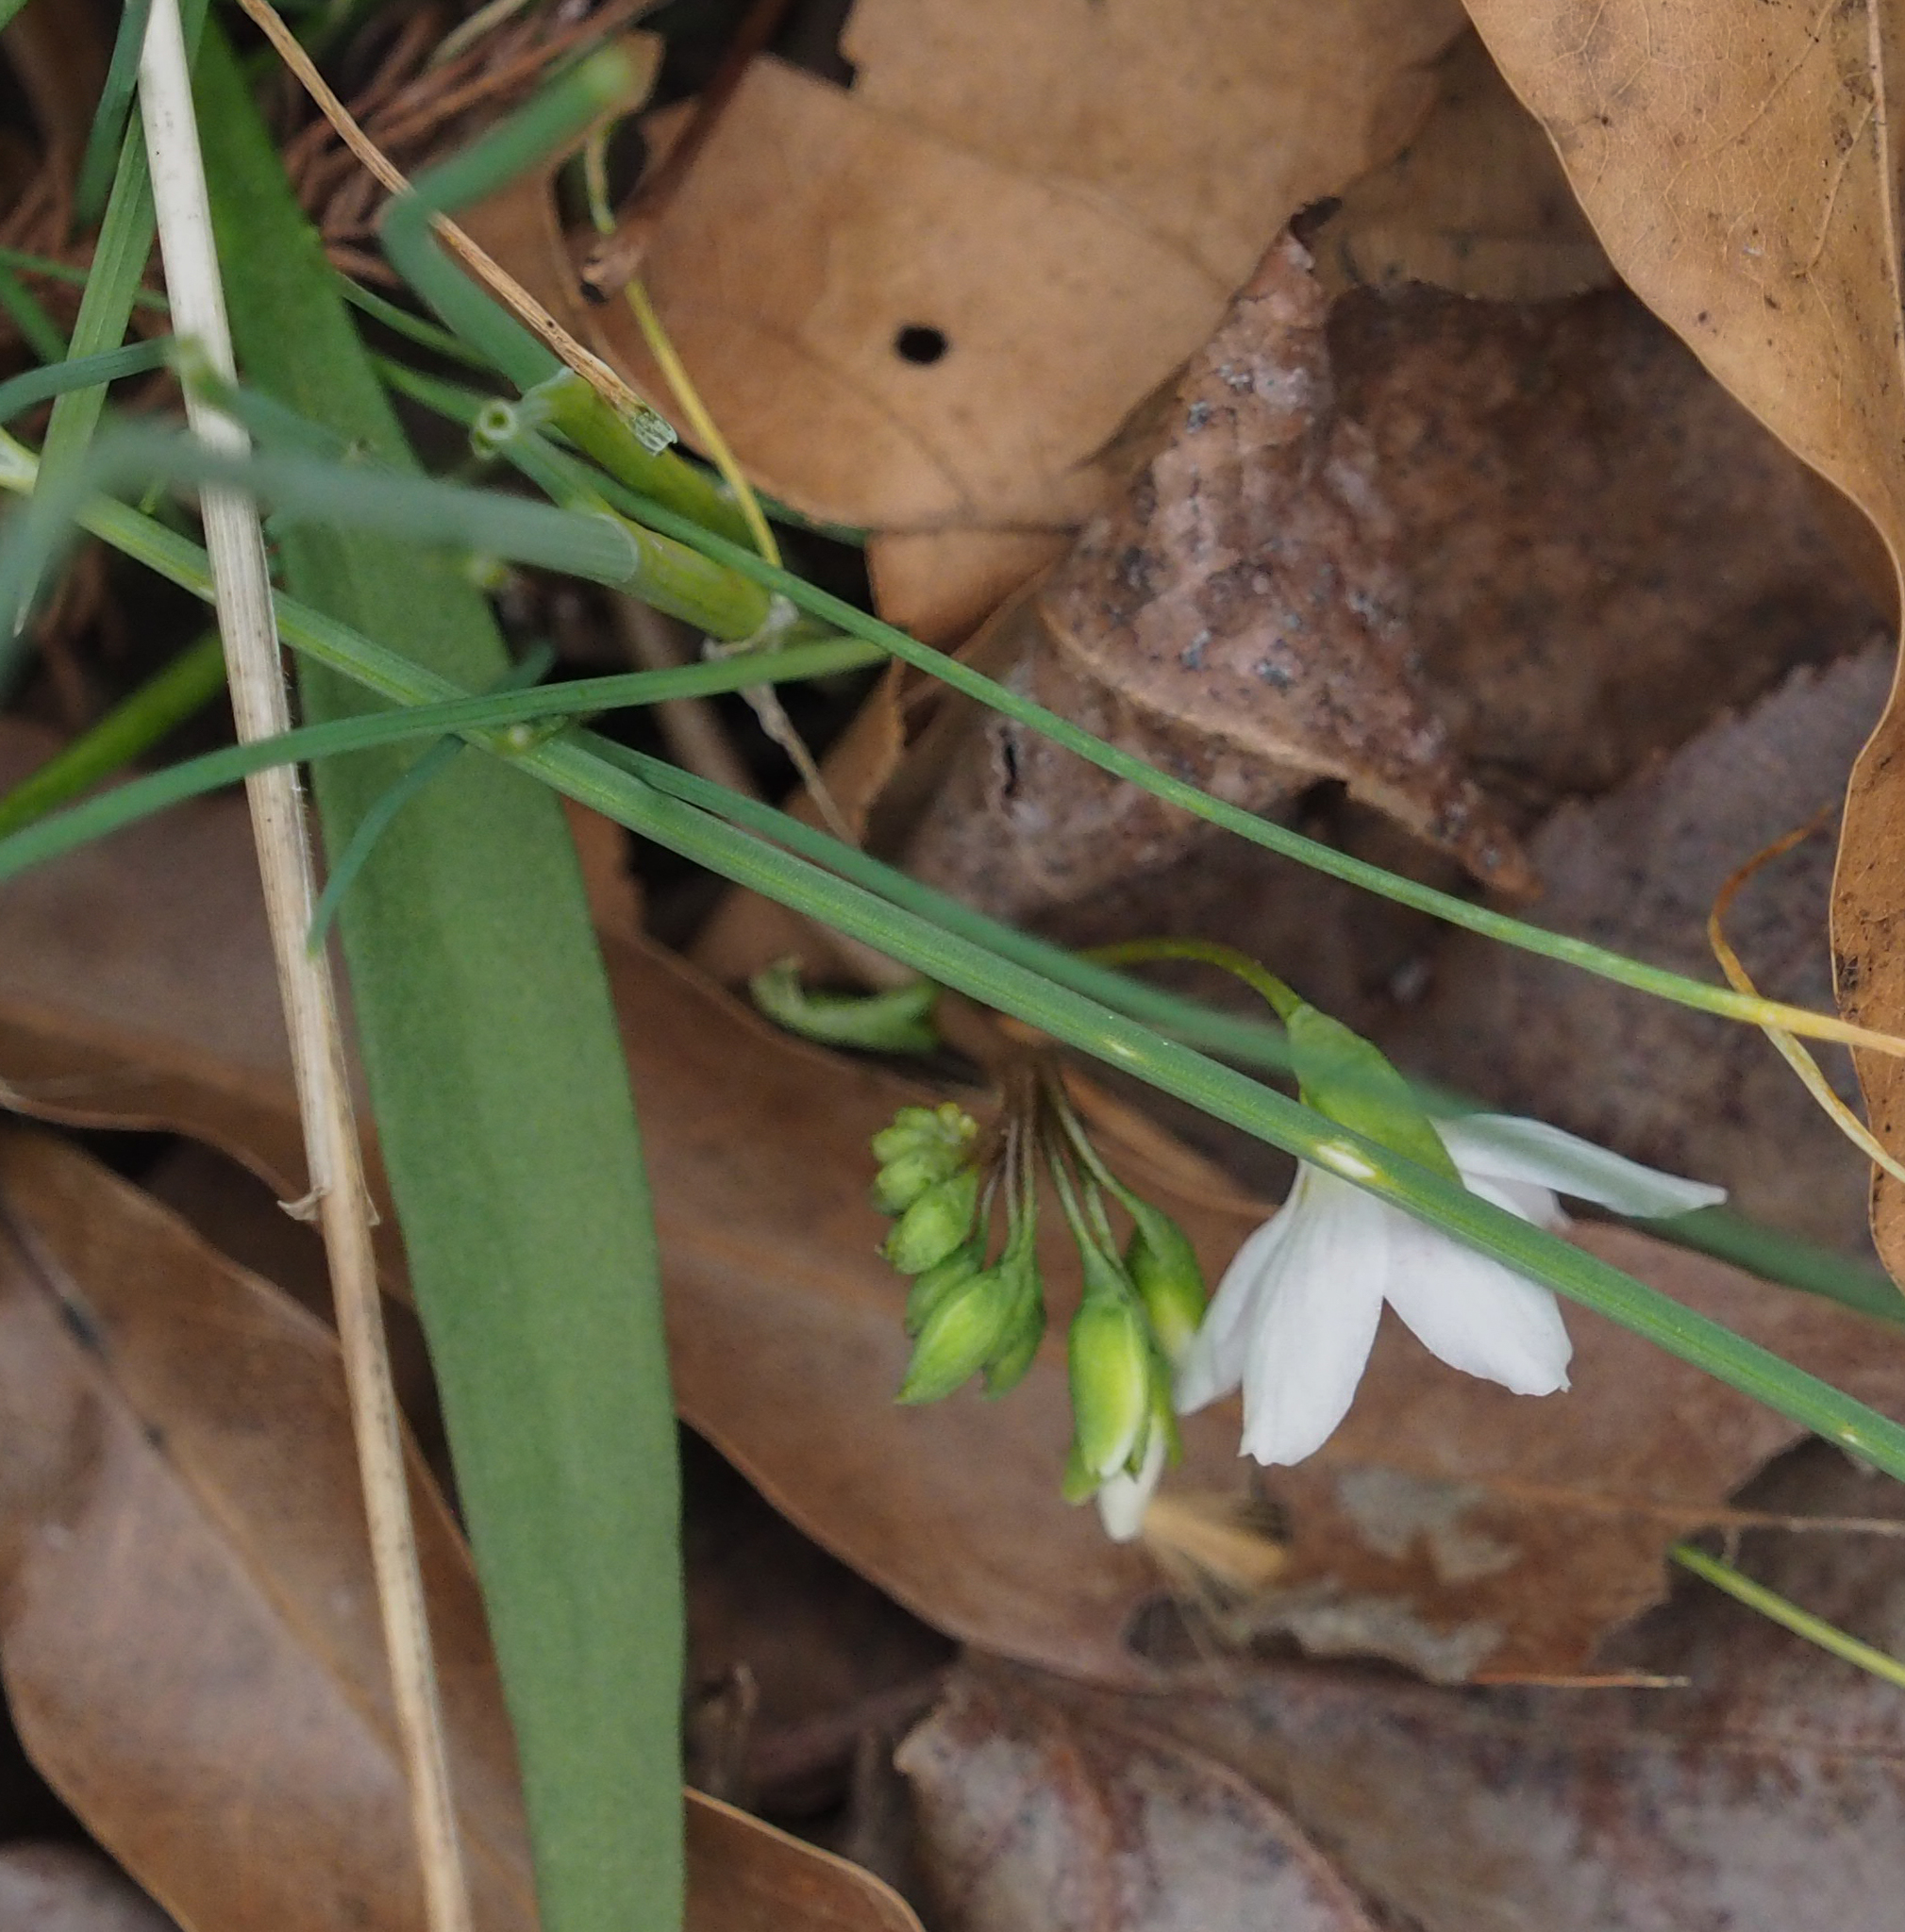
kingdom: Plantae
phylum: Tracheophyta
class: Magnoliopsida
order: Caryophyllales
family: Montiaceae
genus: Claytonia
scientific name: Claytonia virginica
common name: Virginia springbeauty
